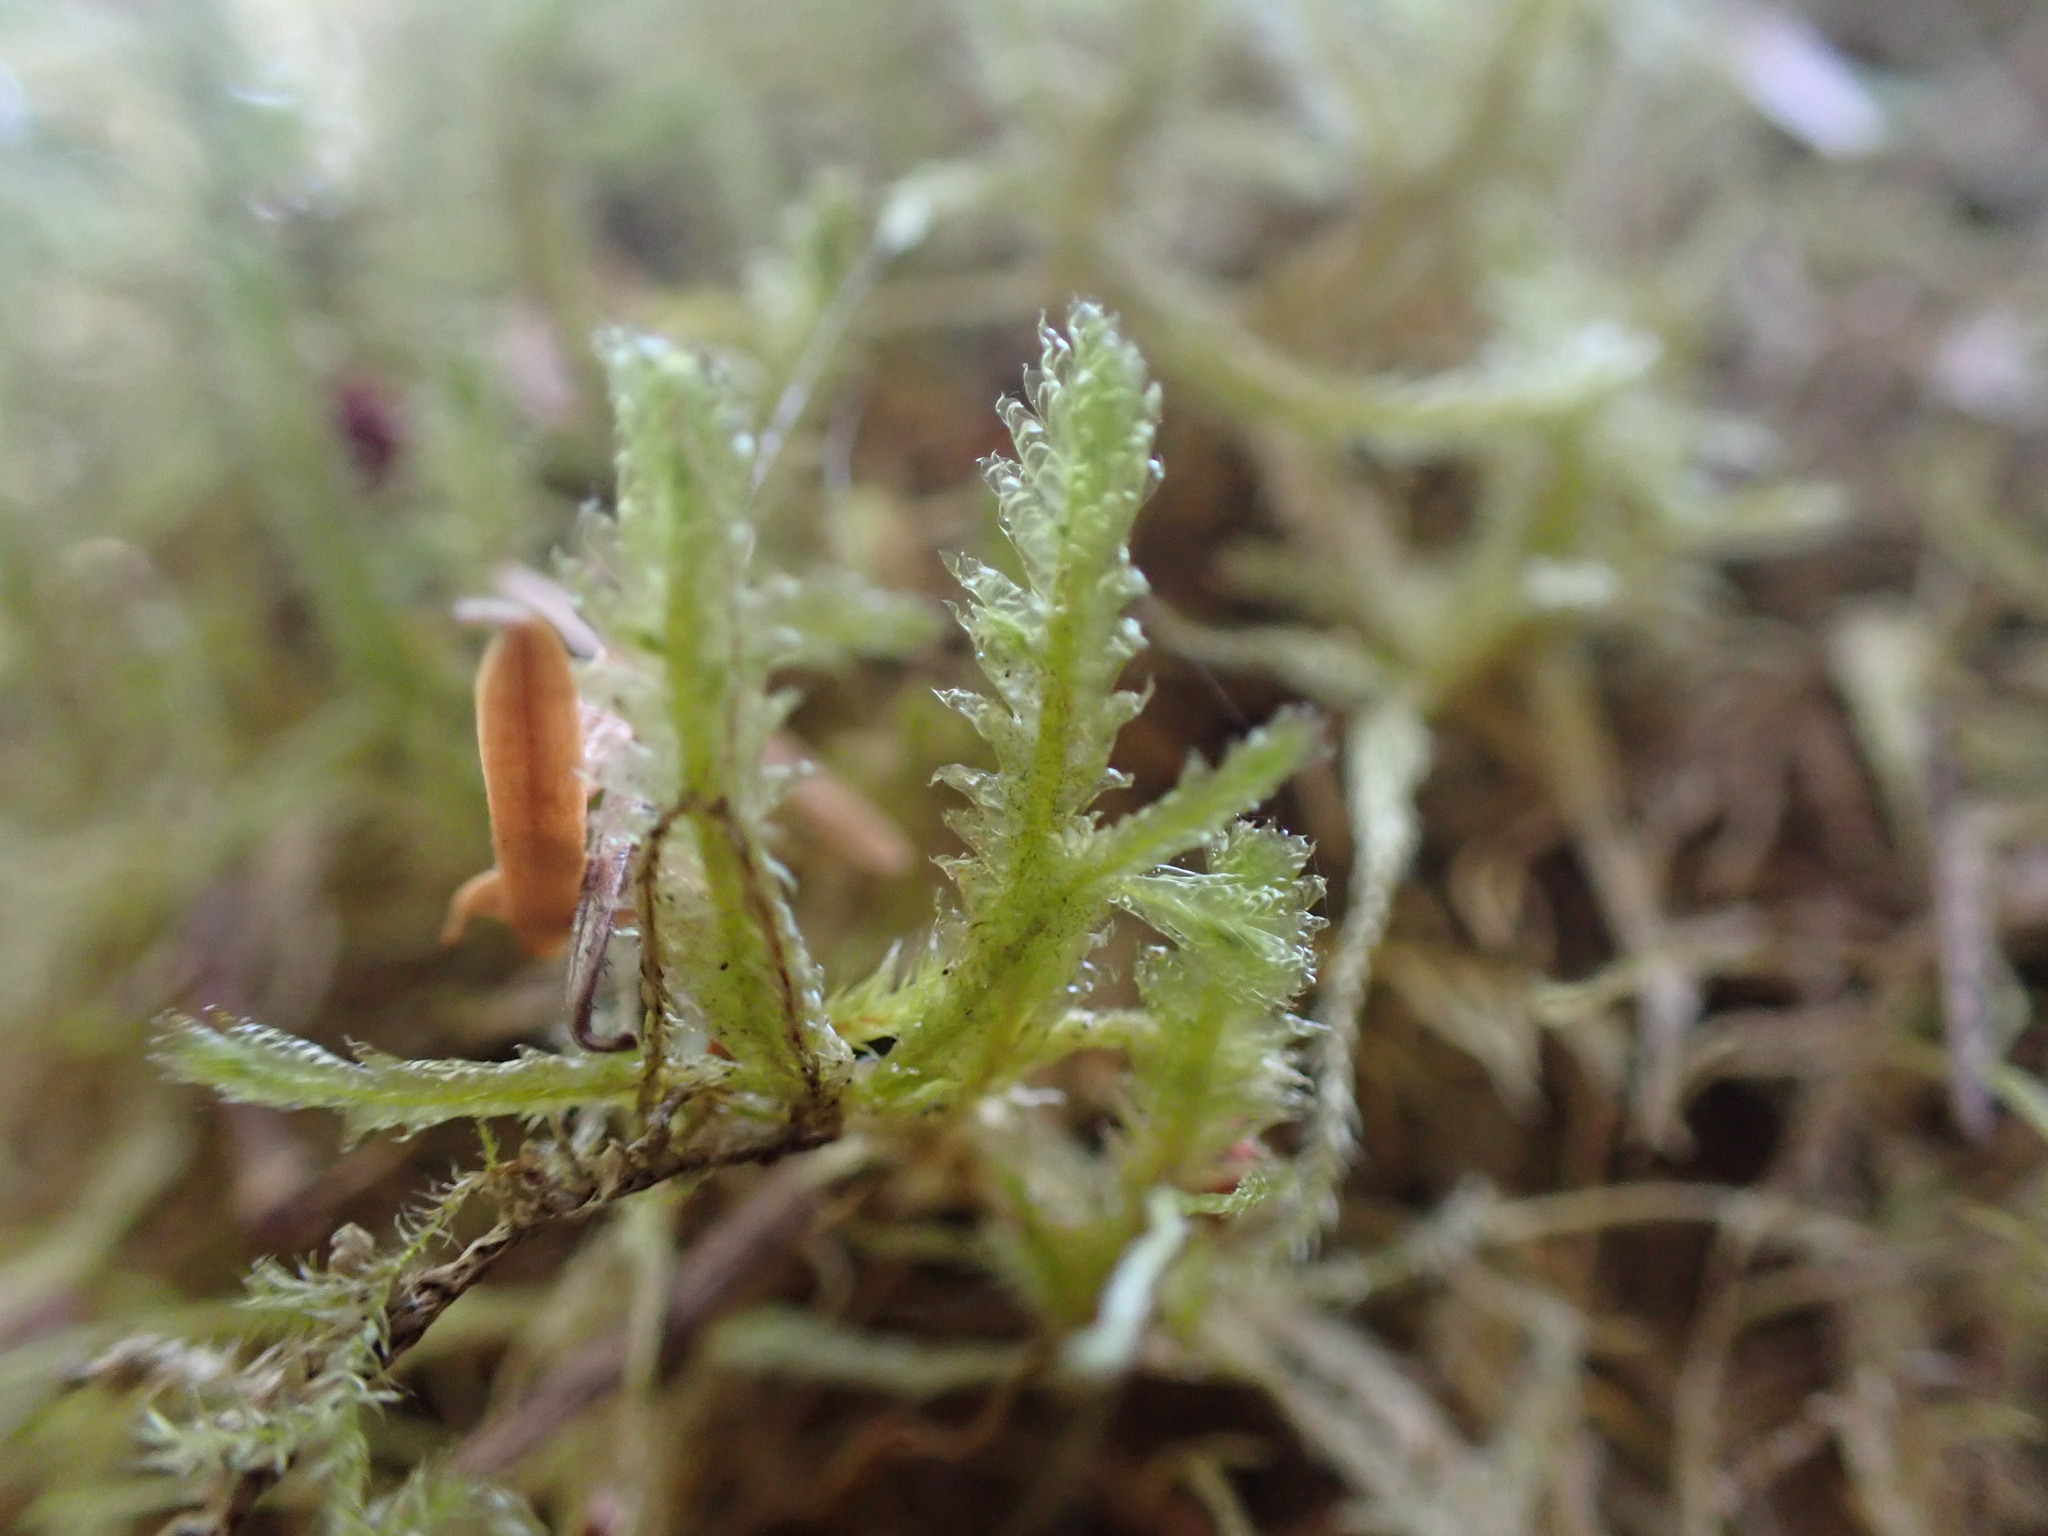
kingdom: Plantae
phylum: Bryophyta
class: Bryopsida
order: Hypnales
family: Neckeraceae
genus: Neckera
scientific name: Neckera douglasii
